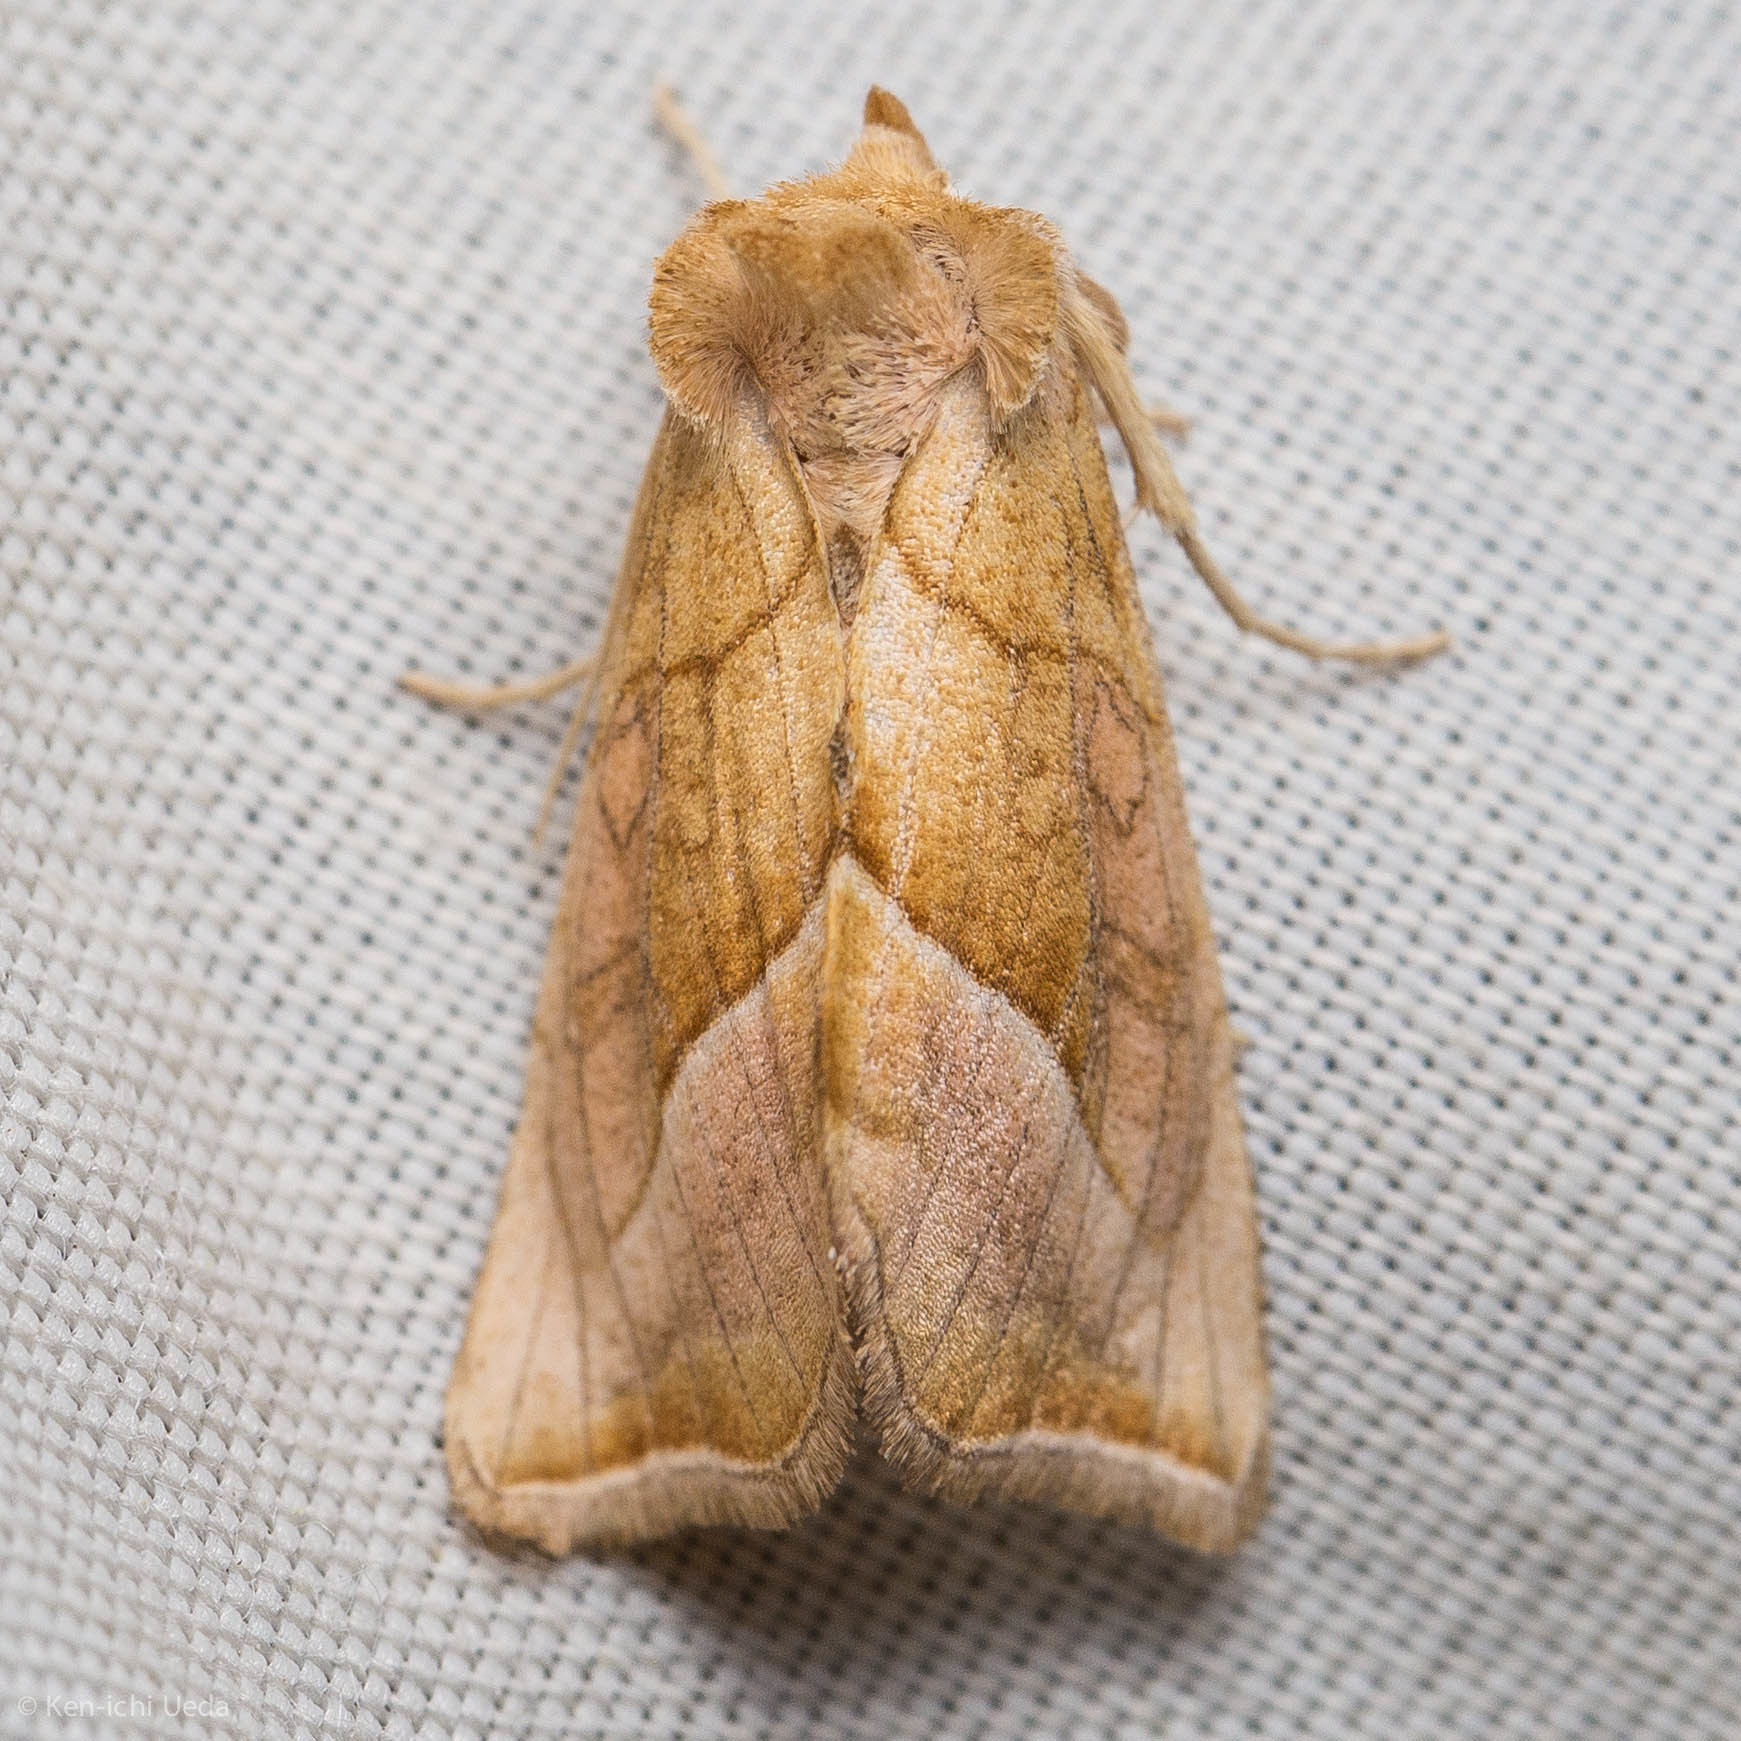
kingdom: Animalia
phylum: Arthropoda
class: Insecta
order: Lepidoptera
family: Noctuidae
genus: Pseudeva
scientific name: Pseudeva palligera
